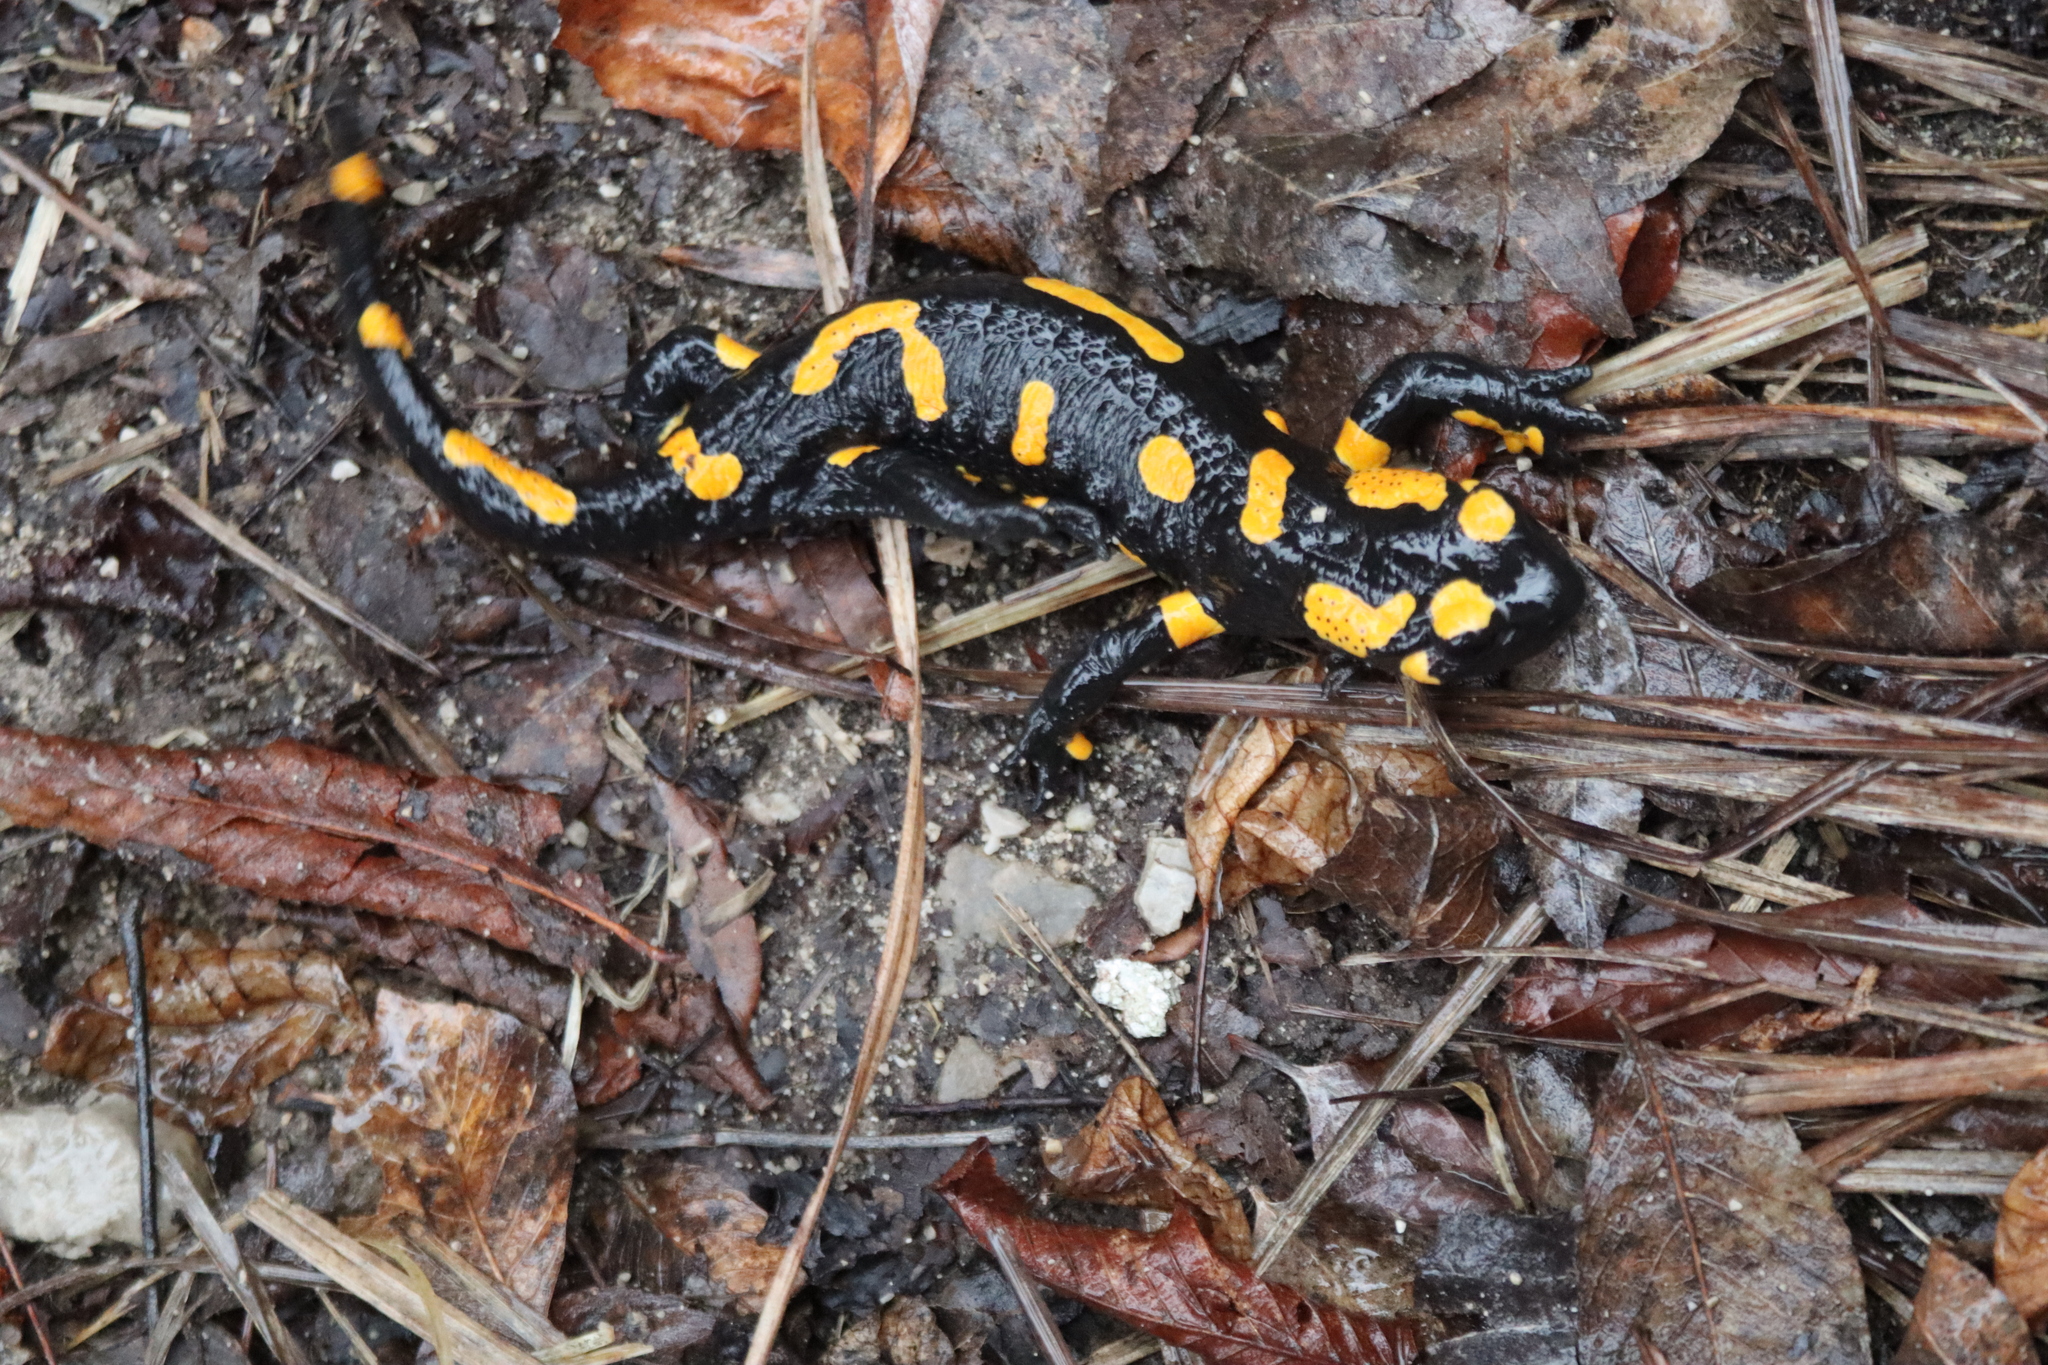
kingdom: Animalia
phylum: Chordata
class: Amphibia
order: Caudata
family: Salamandridae
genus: Salamandra
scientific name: Salamandra salamandra
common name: Fire salamander
